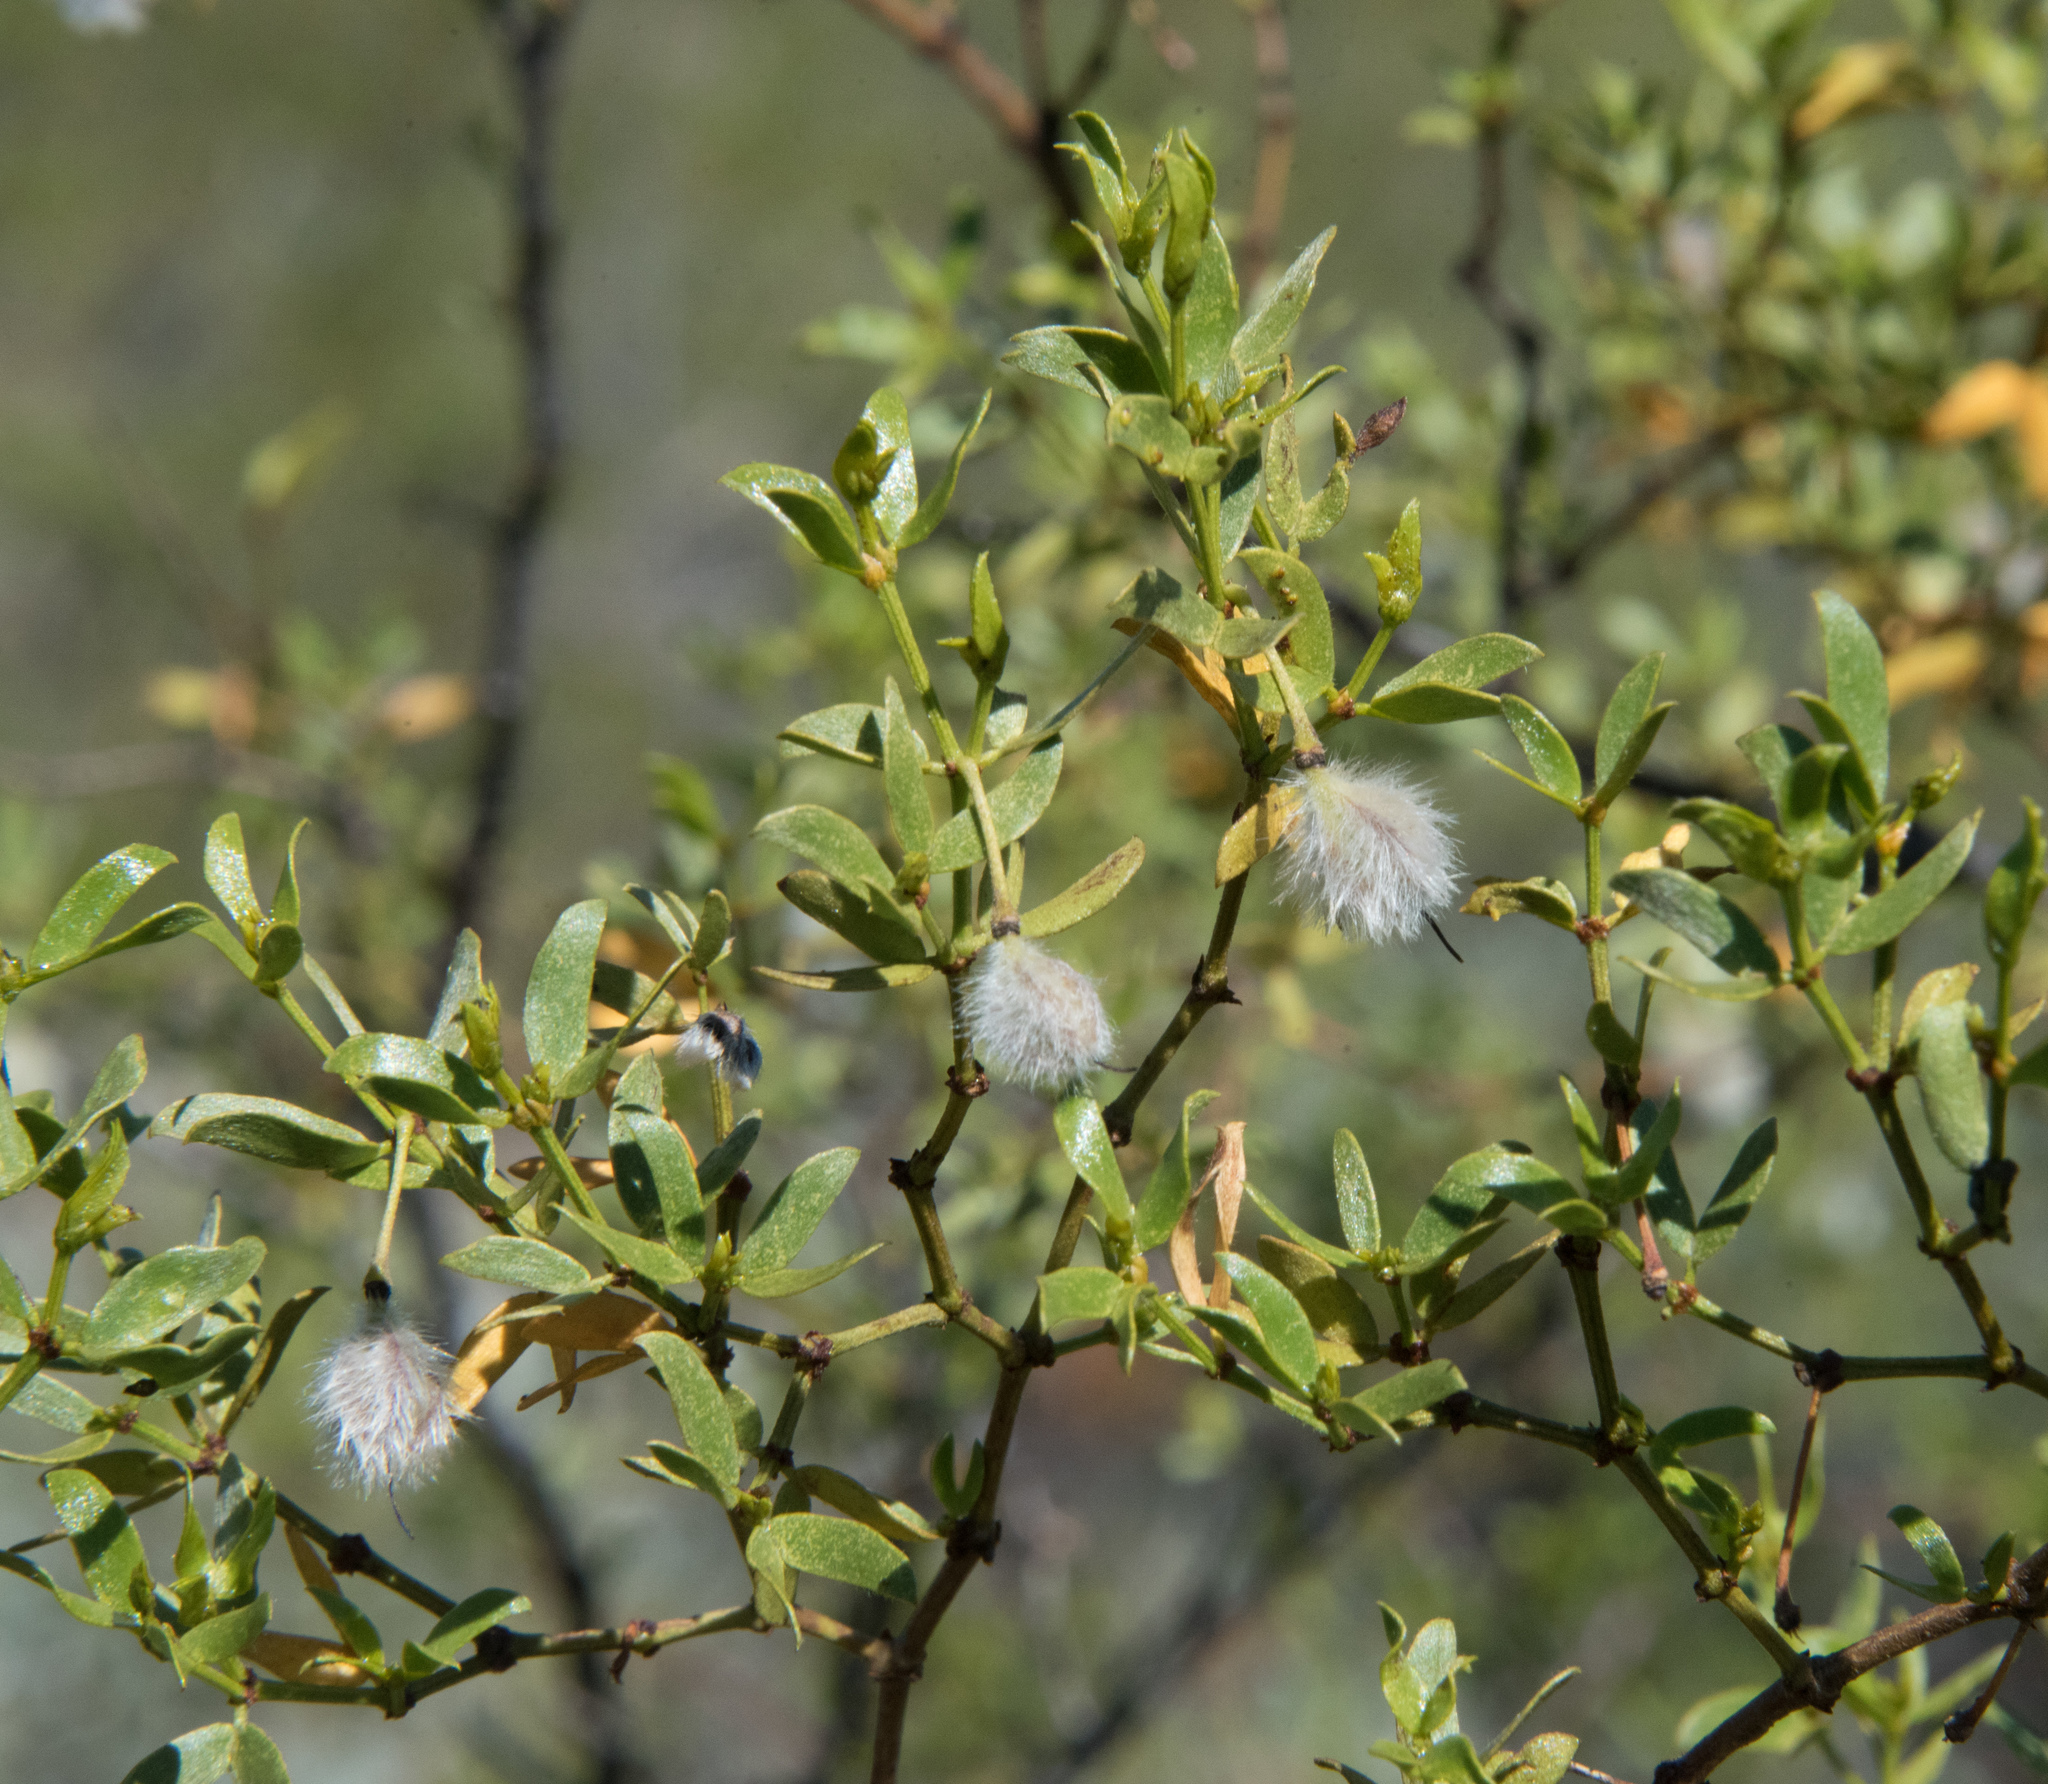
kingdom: Plantae
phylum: Tracheophyta
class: Magnoliopsida
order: Zygophyllales
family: Zygophyllaceae
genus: Larrea
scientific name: Larrea tridentata
